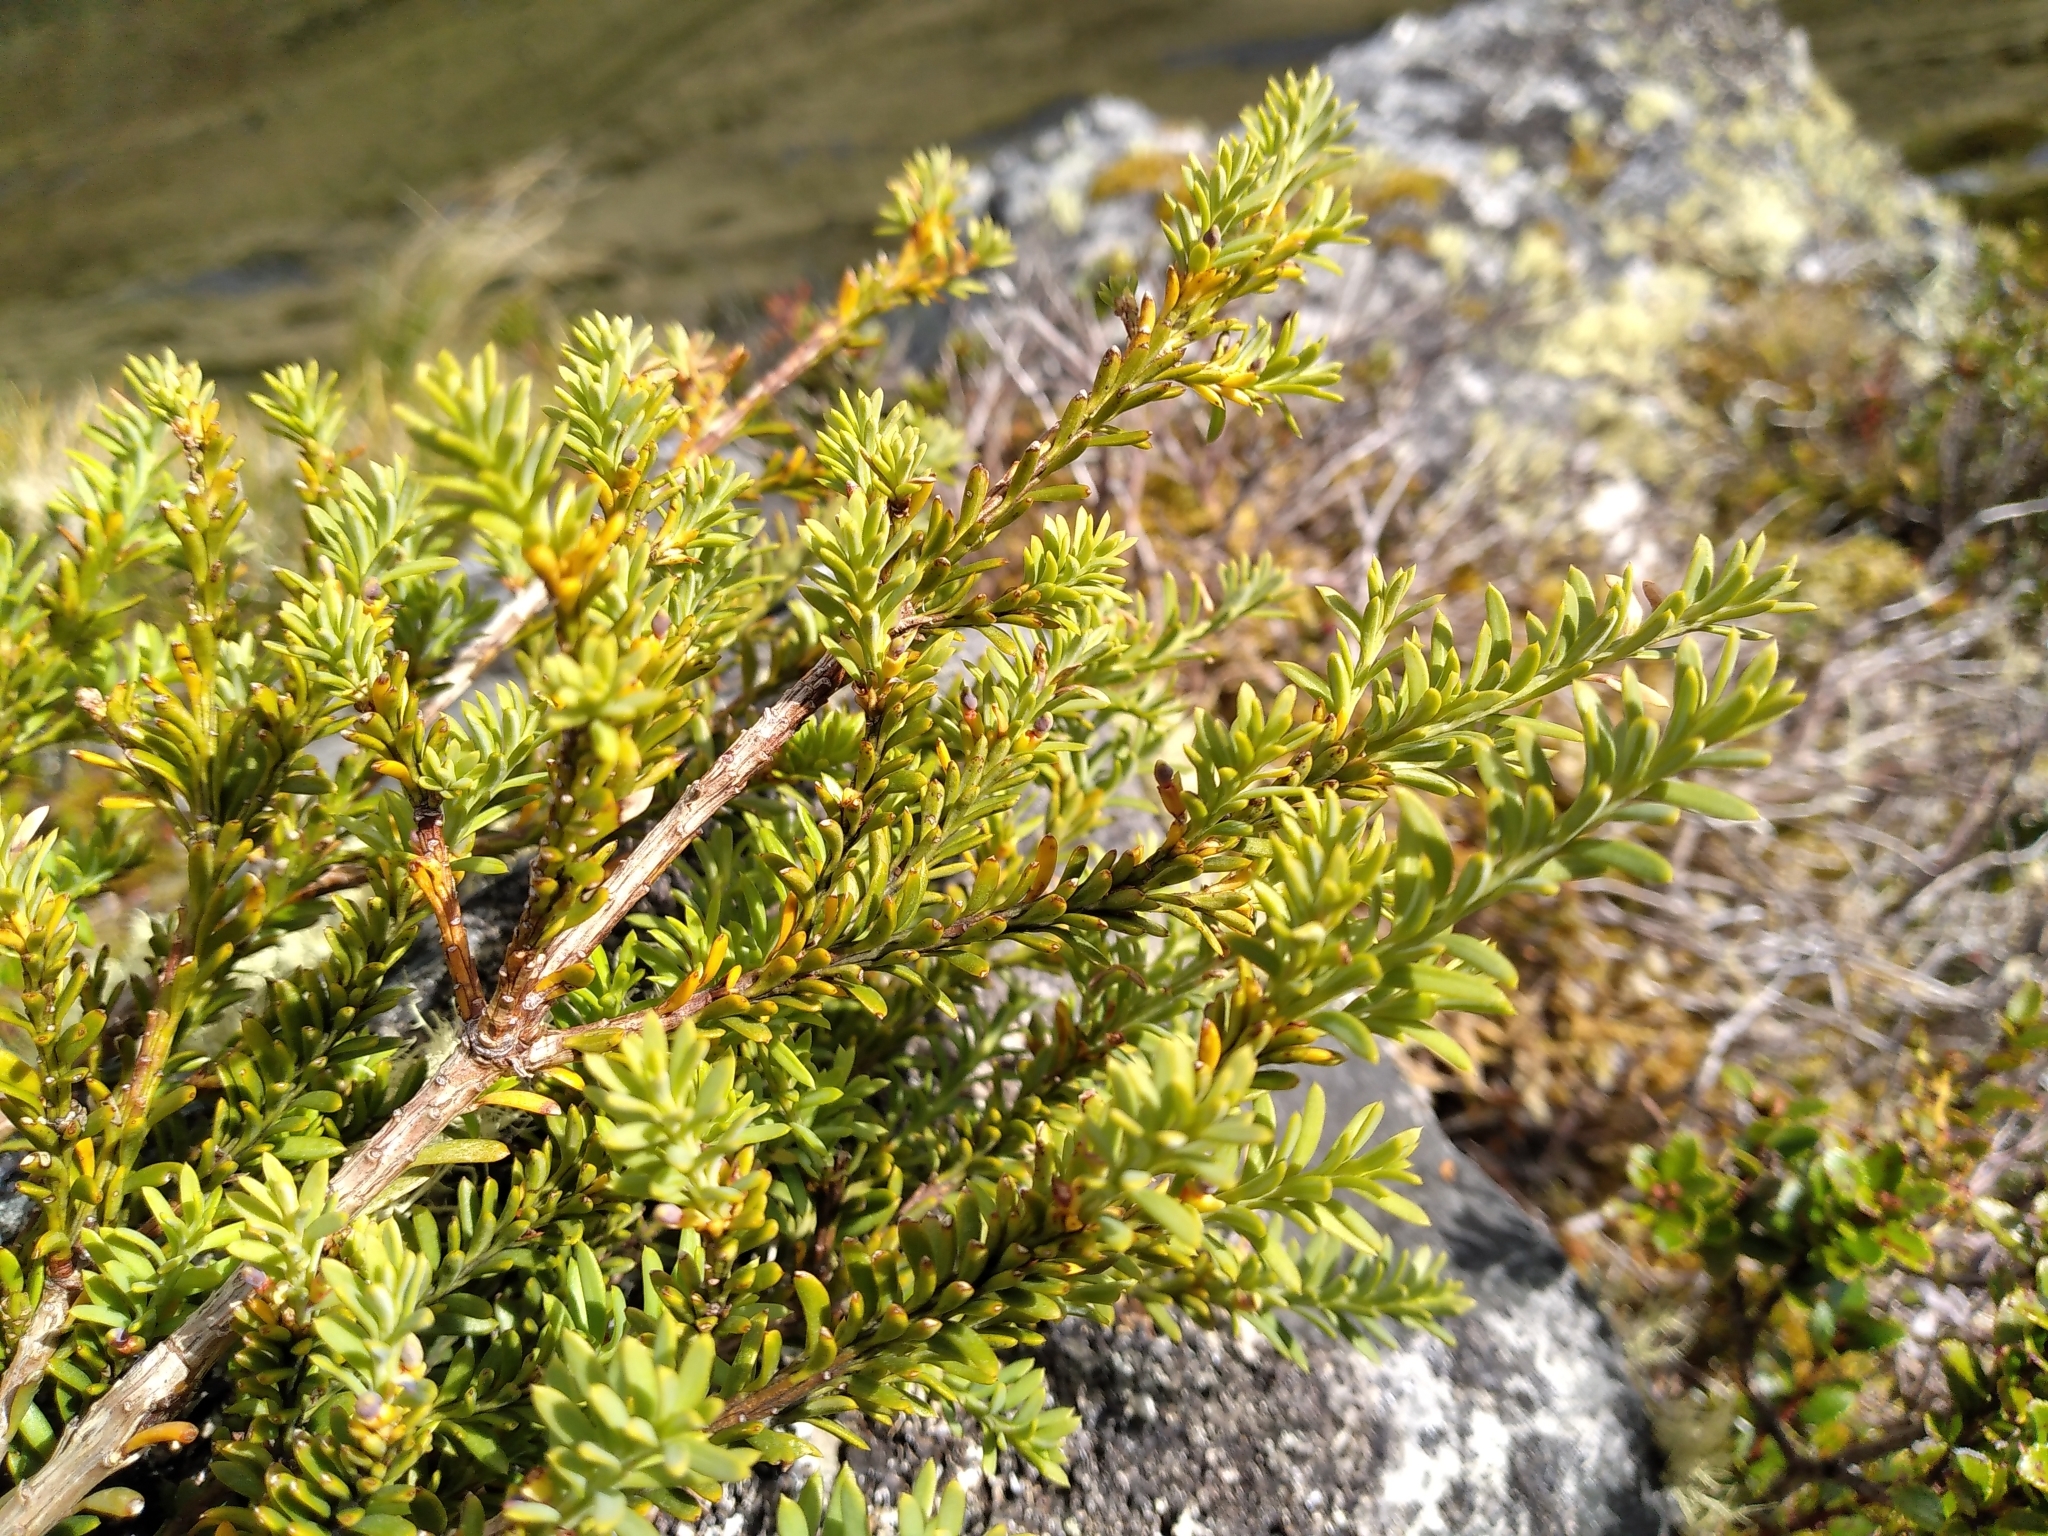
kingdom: Plantae
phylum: Tracheophyta
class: Pinopsida
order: Pinales
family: Podocarpaceae
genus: Podocarpus
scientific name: Podocarpus nivalis
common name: Alpine totara
